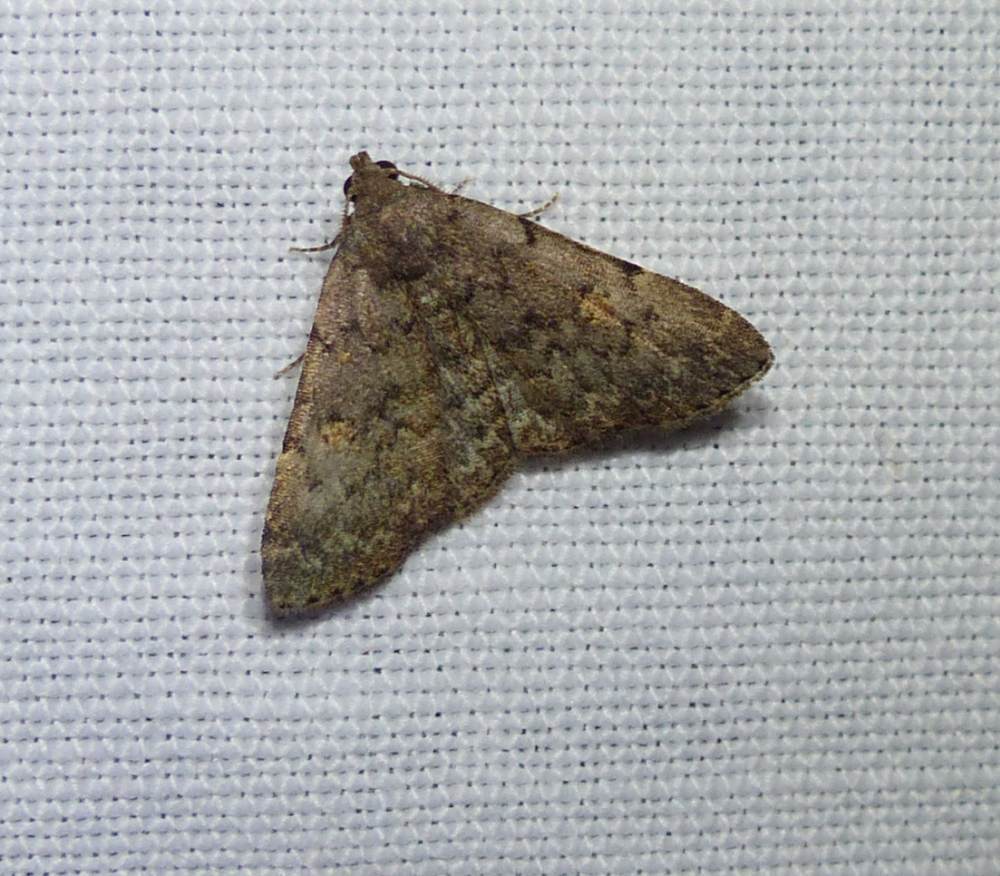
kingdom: Animalia
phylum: Arthropoda
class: Insecta
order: Lepidoptera
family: Erebidae
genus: Idia
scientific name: Idia aemula
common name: Common idia moth
